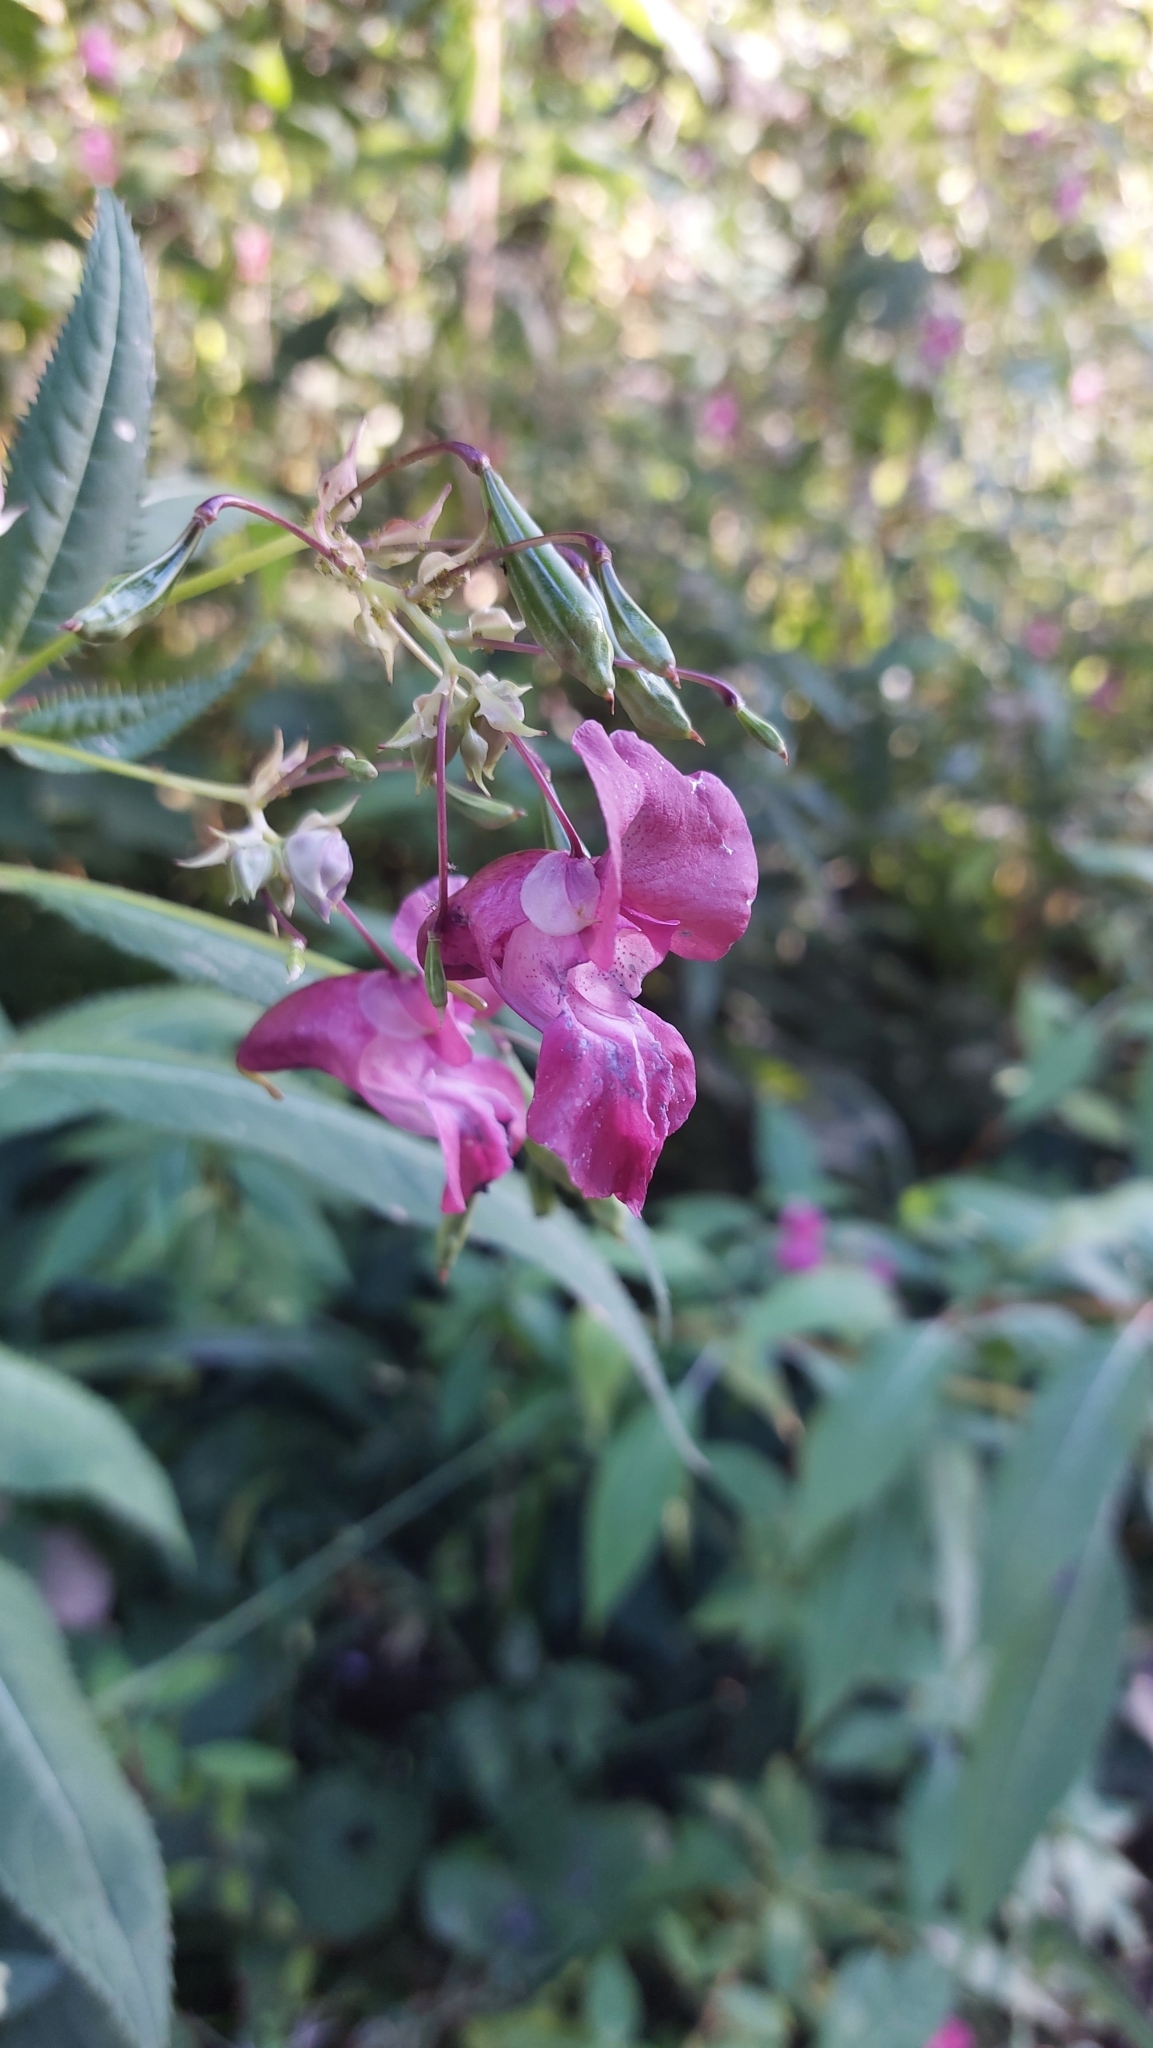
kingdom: Plantae
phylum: Tracheophyta
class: Magnoliopsida
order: Ericales
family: Balsaminaceae
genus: Impatiens
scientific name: Impatiens glandulifera
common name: Himalayan balsam
